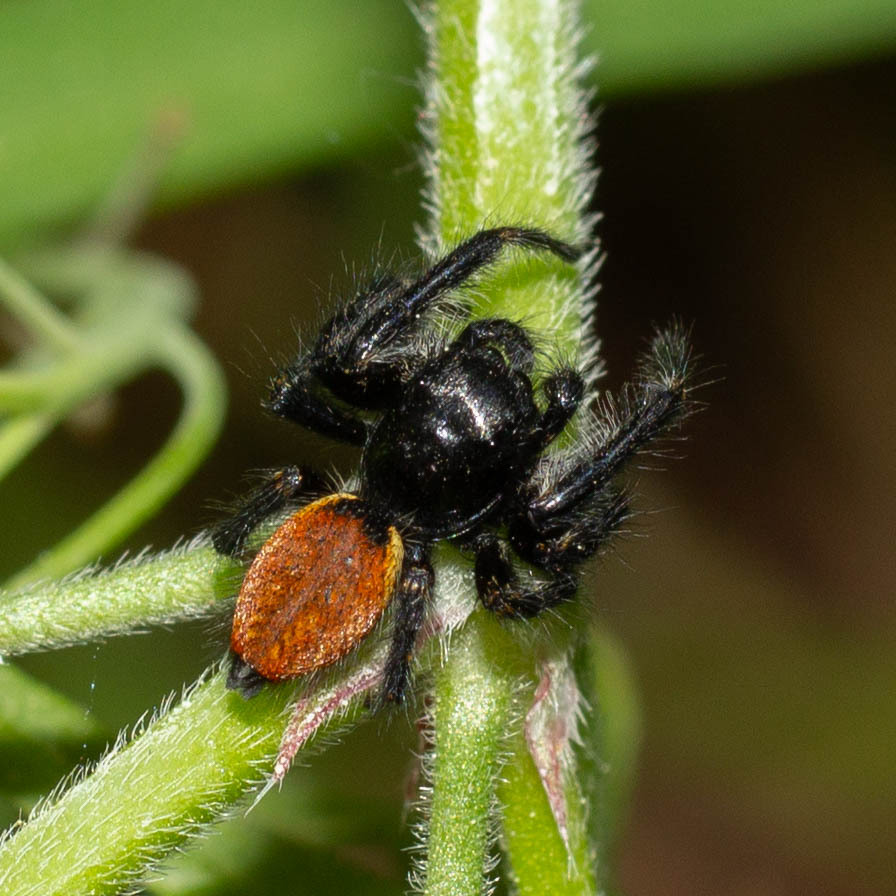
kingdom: Animalia
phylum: Arthropoda
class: Arachnida
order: Araneae
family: Salticidae
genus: Carrhotus
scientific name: Carrhotus xanthogramma
